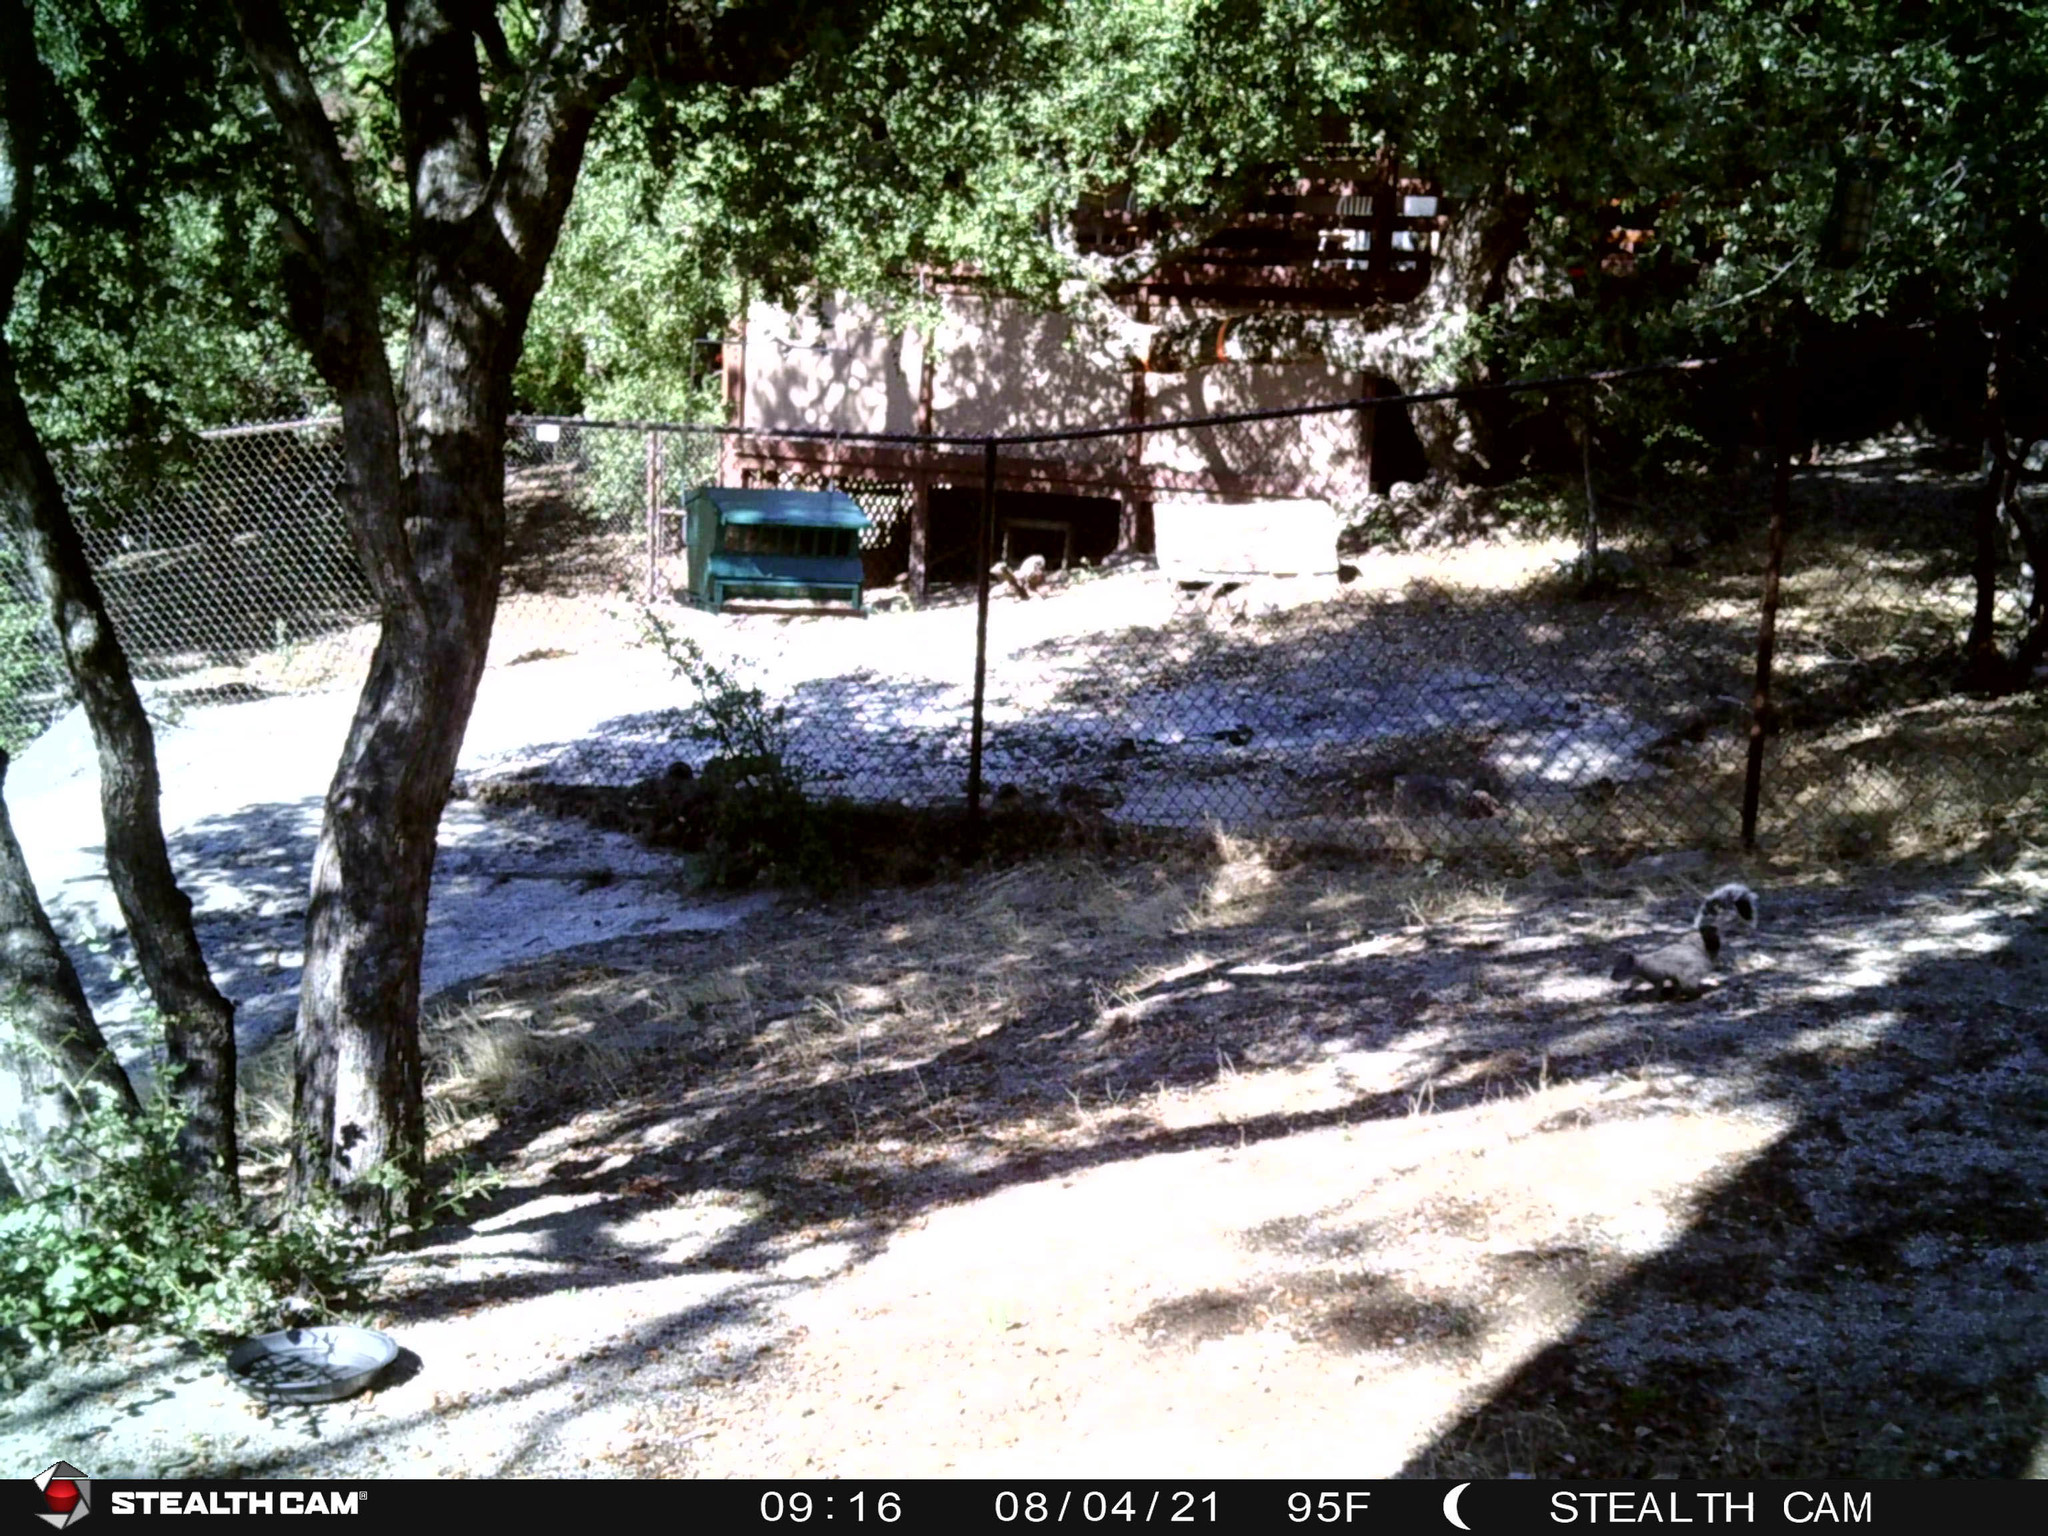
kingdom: Animalia
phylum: Chordata
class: Mammalia
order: Rodentia
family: Sciuridae
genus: Sciurus
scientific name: Sciurus griseus
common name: Western gray squirrel
